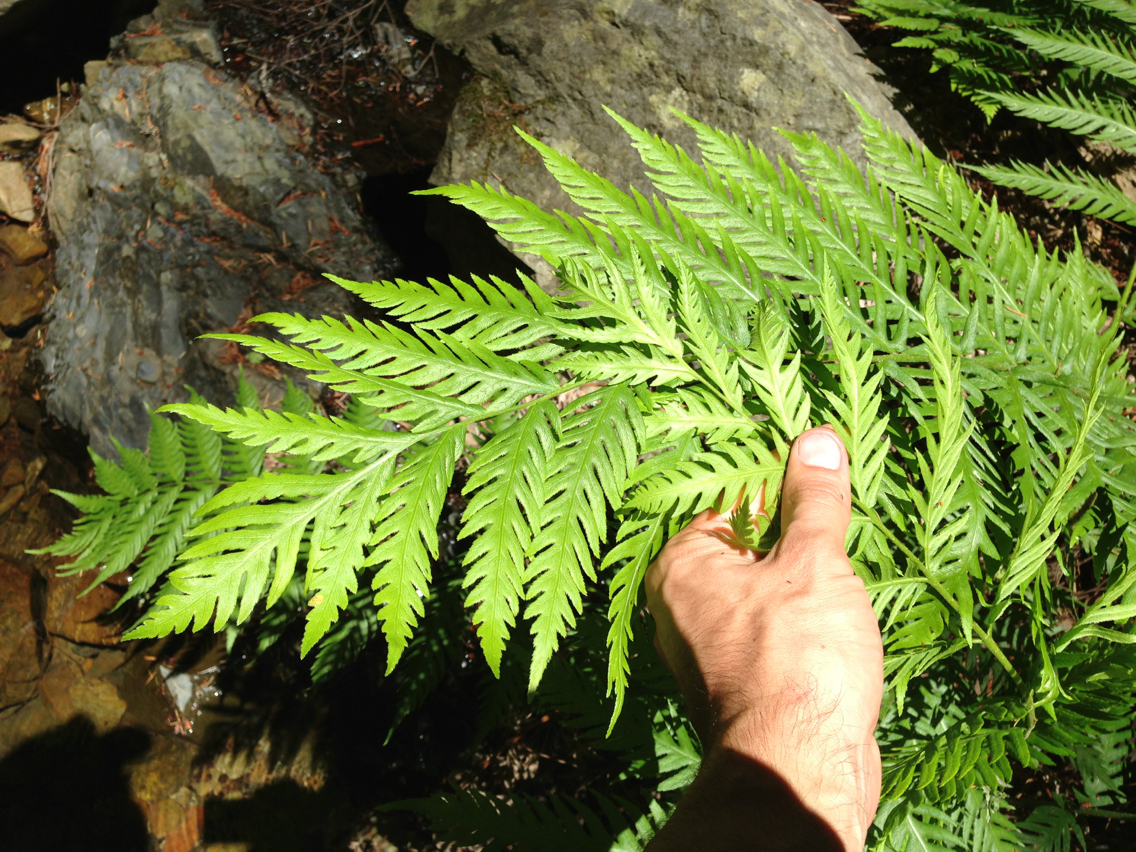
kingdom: Plantae
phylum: Tracheophyta
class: Polypodiopsida
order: Polypodiales
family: Blechnaceae
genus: Woodwardia
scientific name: Woodwardia fimbriata
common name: Giant chain fern
